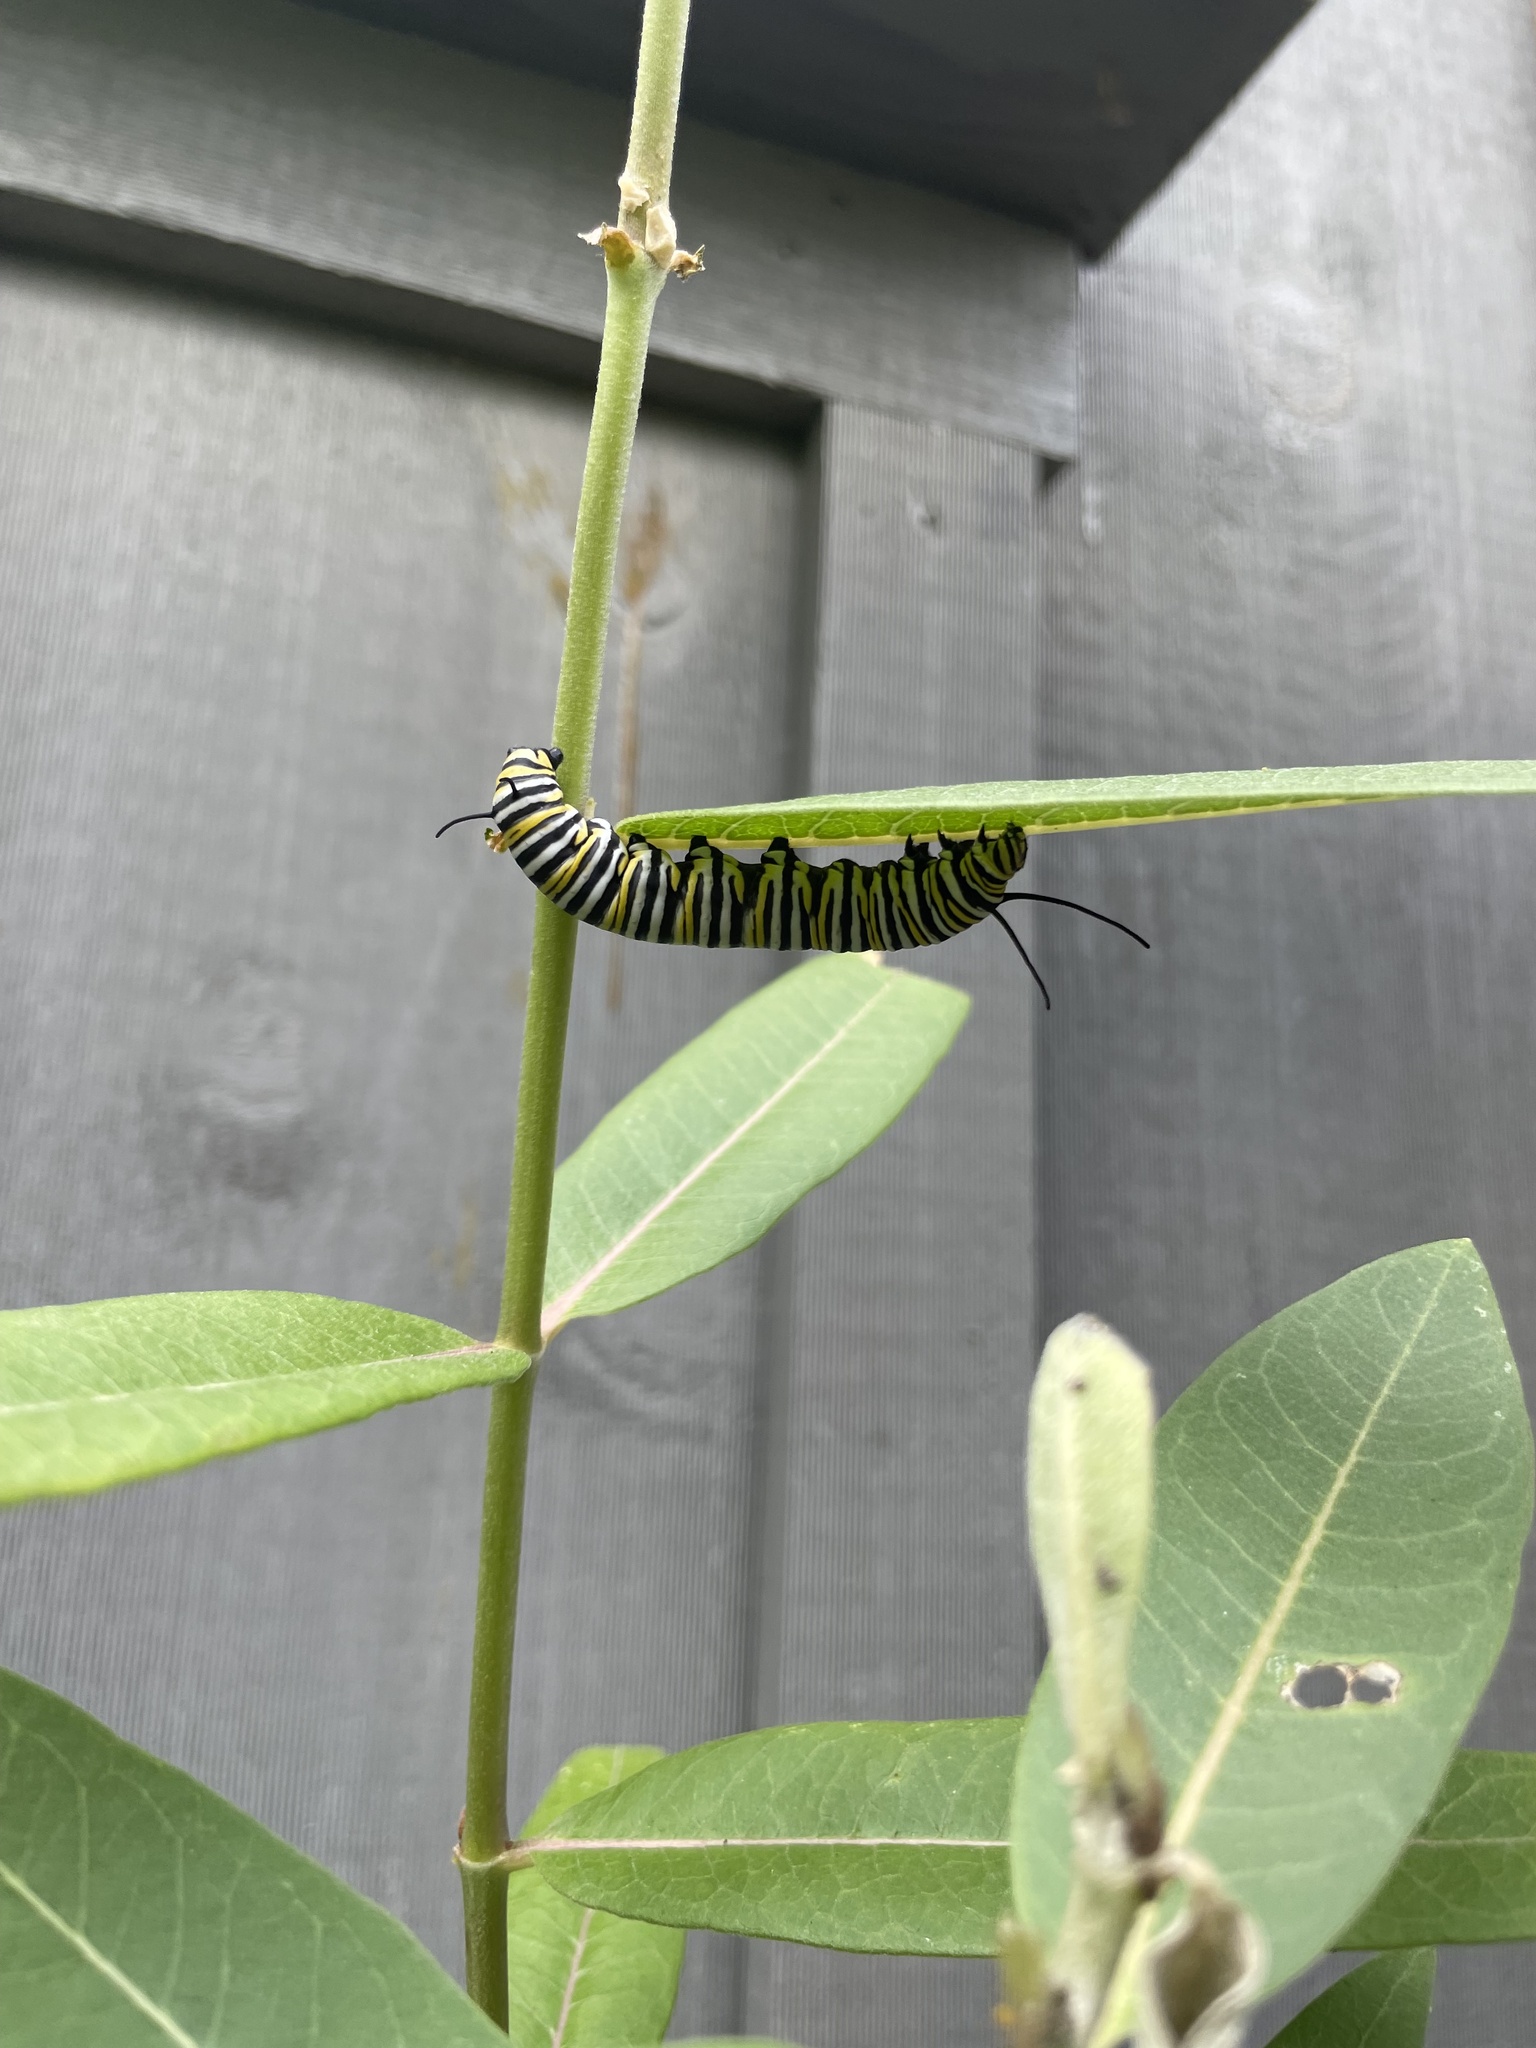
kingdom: Animalia
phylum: Arthropoda
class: Insecta
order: Lepidoptera
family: Nymphalidae
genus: Danaus
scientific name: Danaus plexippus
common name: Monarch
